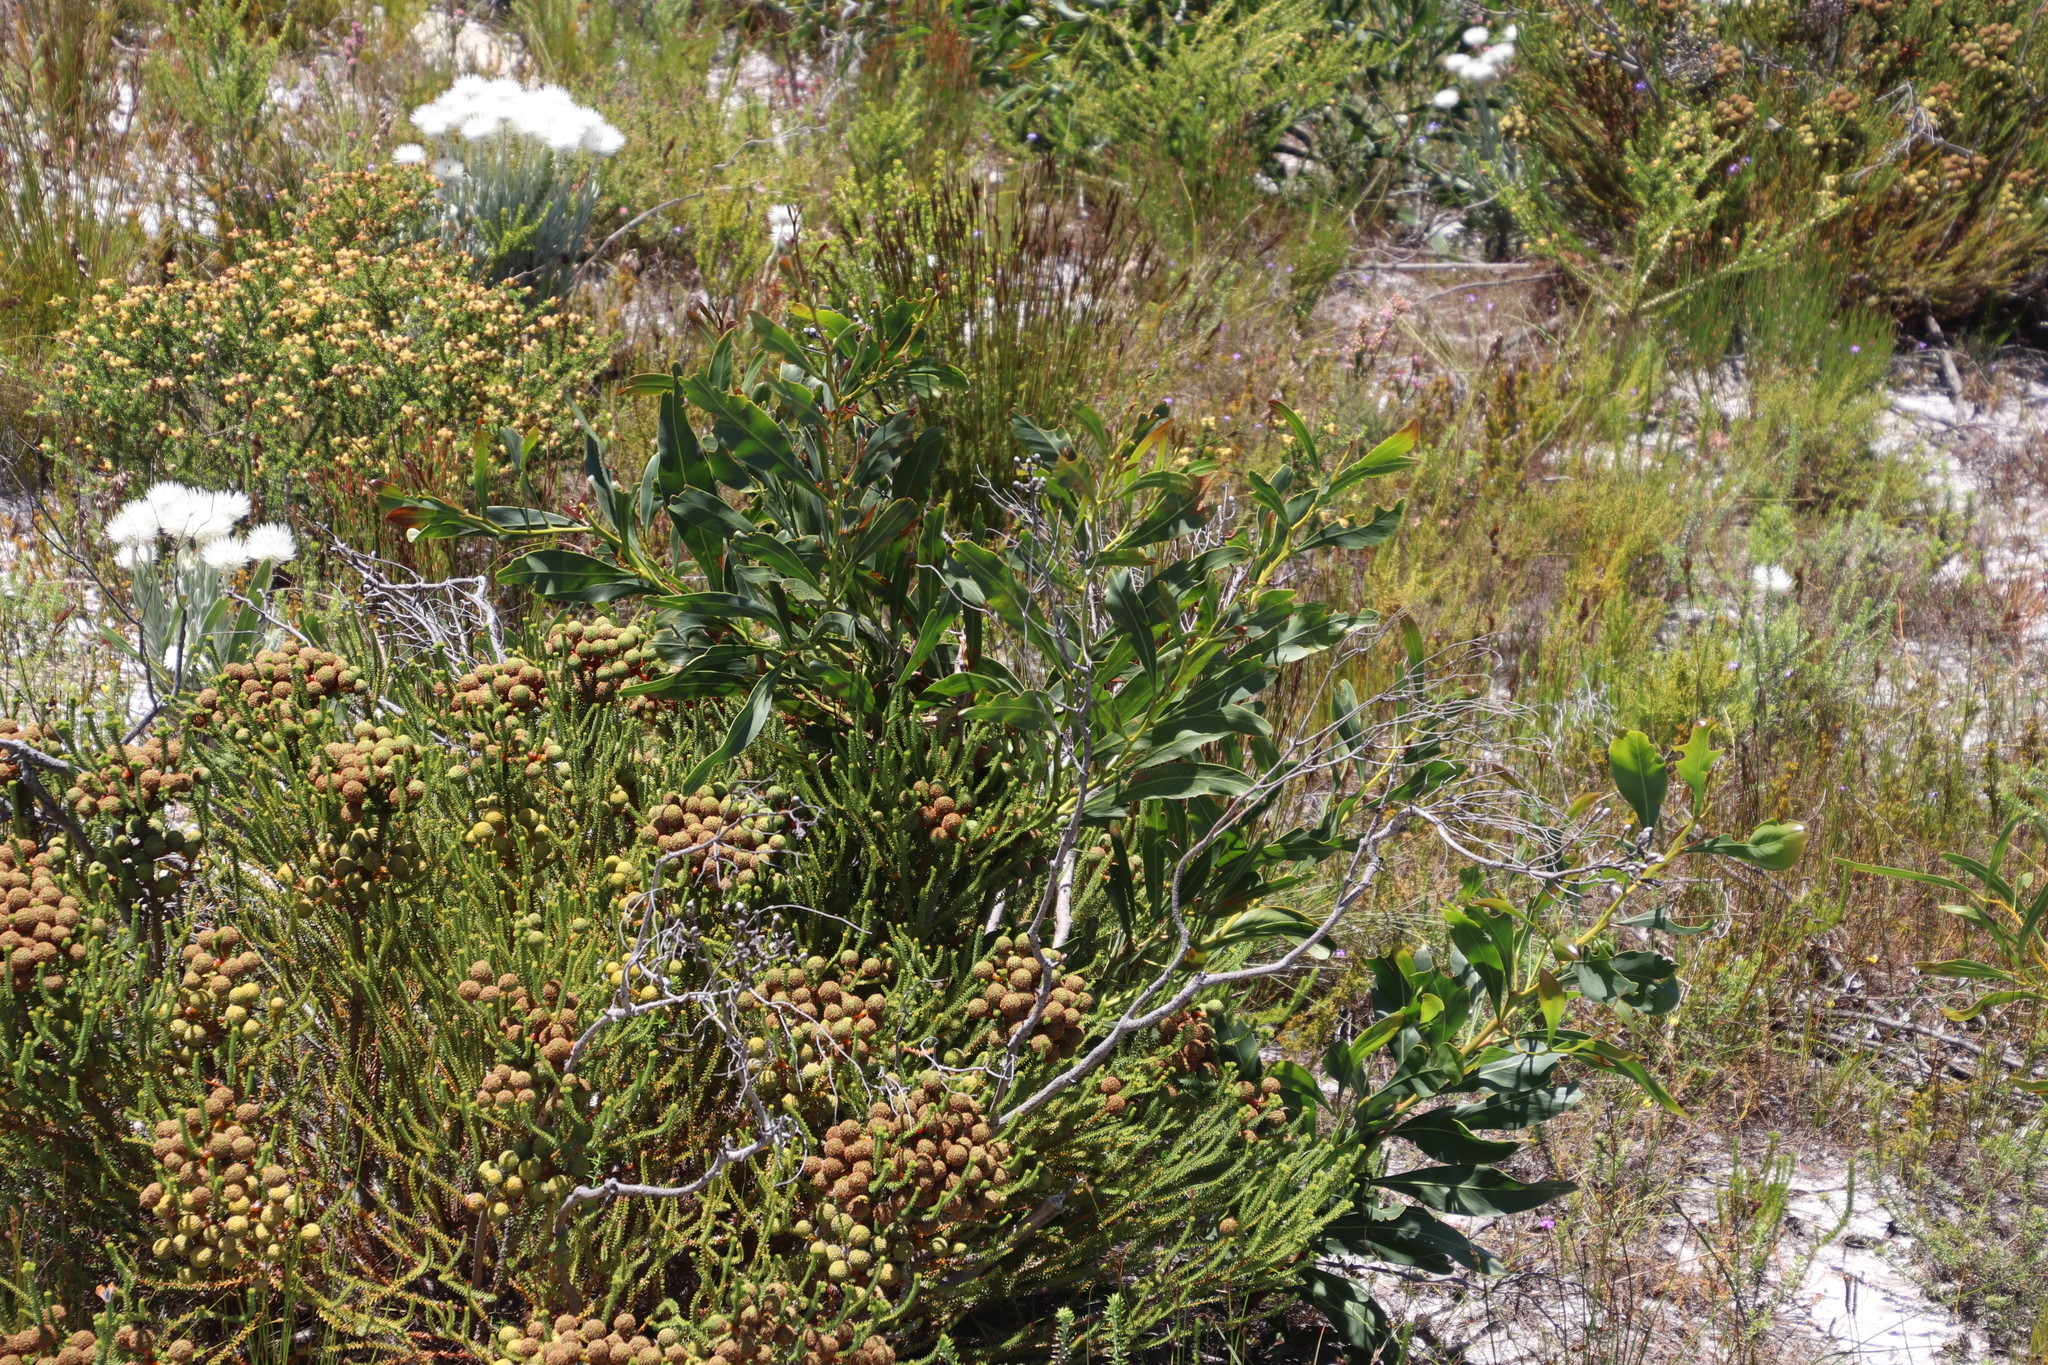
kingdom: Plantae
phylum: Tracheophyta
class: Magnoliopsida
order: Bruniales
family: Bruniaceae
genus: Berzelia
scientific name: Berzelia abrotanoides
